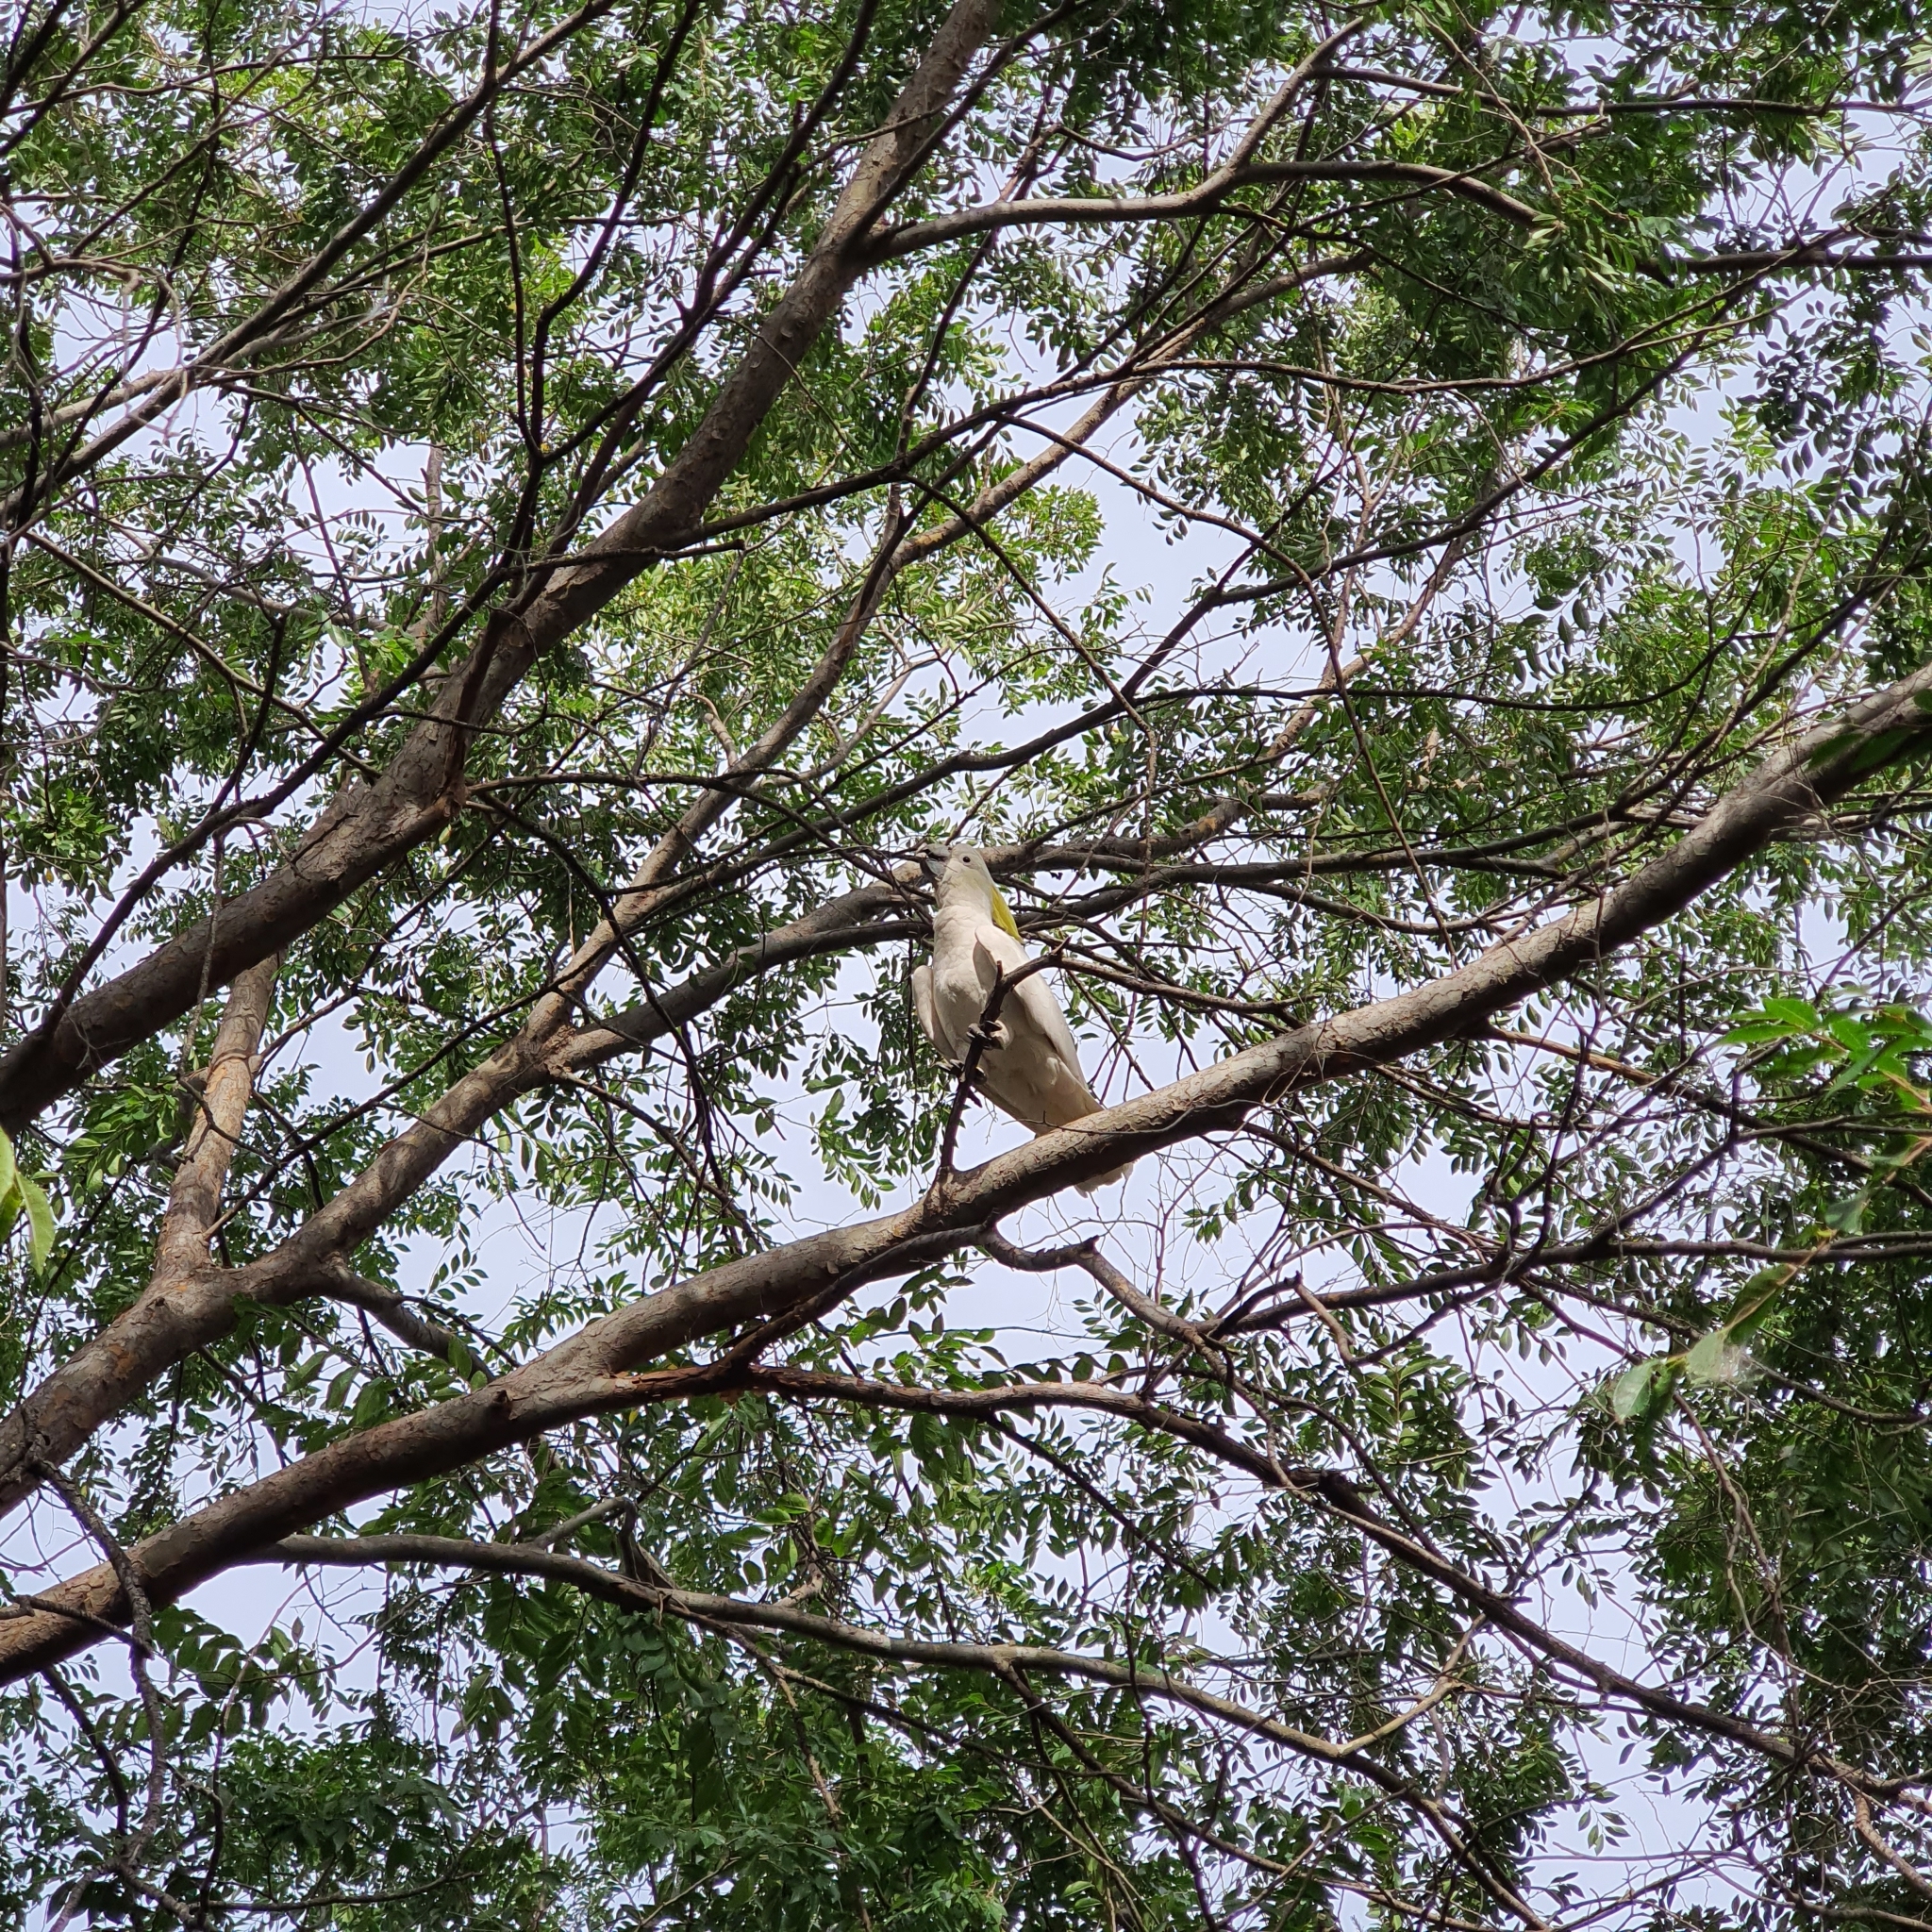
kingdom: Animalia
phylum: Chordata
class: Aves
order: Psittaciformes
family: Psittacidae
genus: Cacatua
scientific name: Cacatua galerita
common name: Sulphur-crested cockatoo
